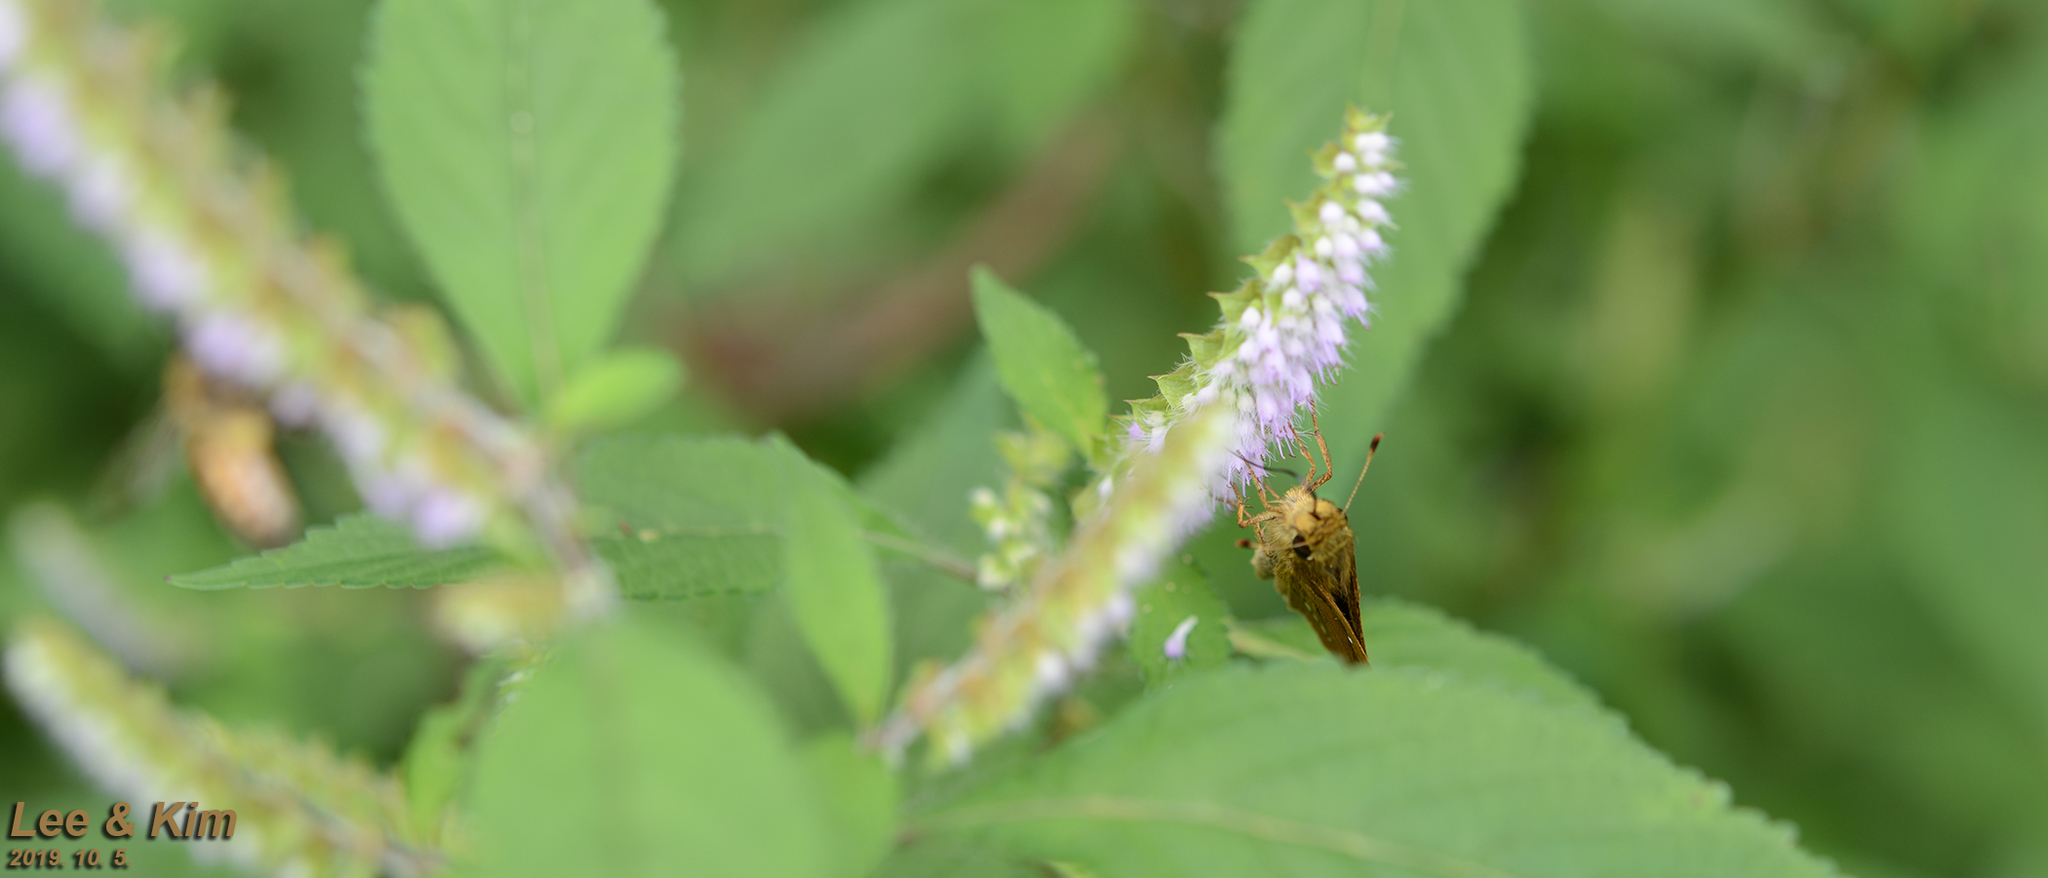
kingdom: Animalia
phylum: Arthropoda
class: Insecta
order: Lepidoptera
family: Hesperiidae
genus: Parnara
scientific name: Parnara guttatus
